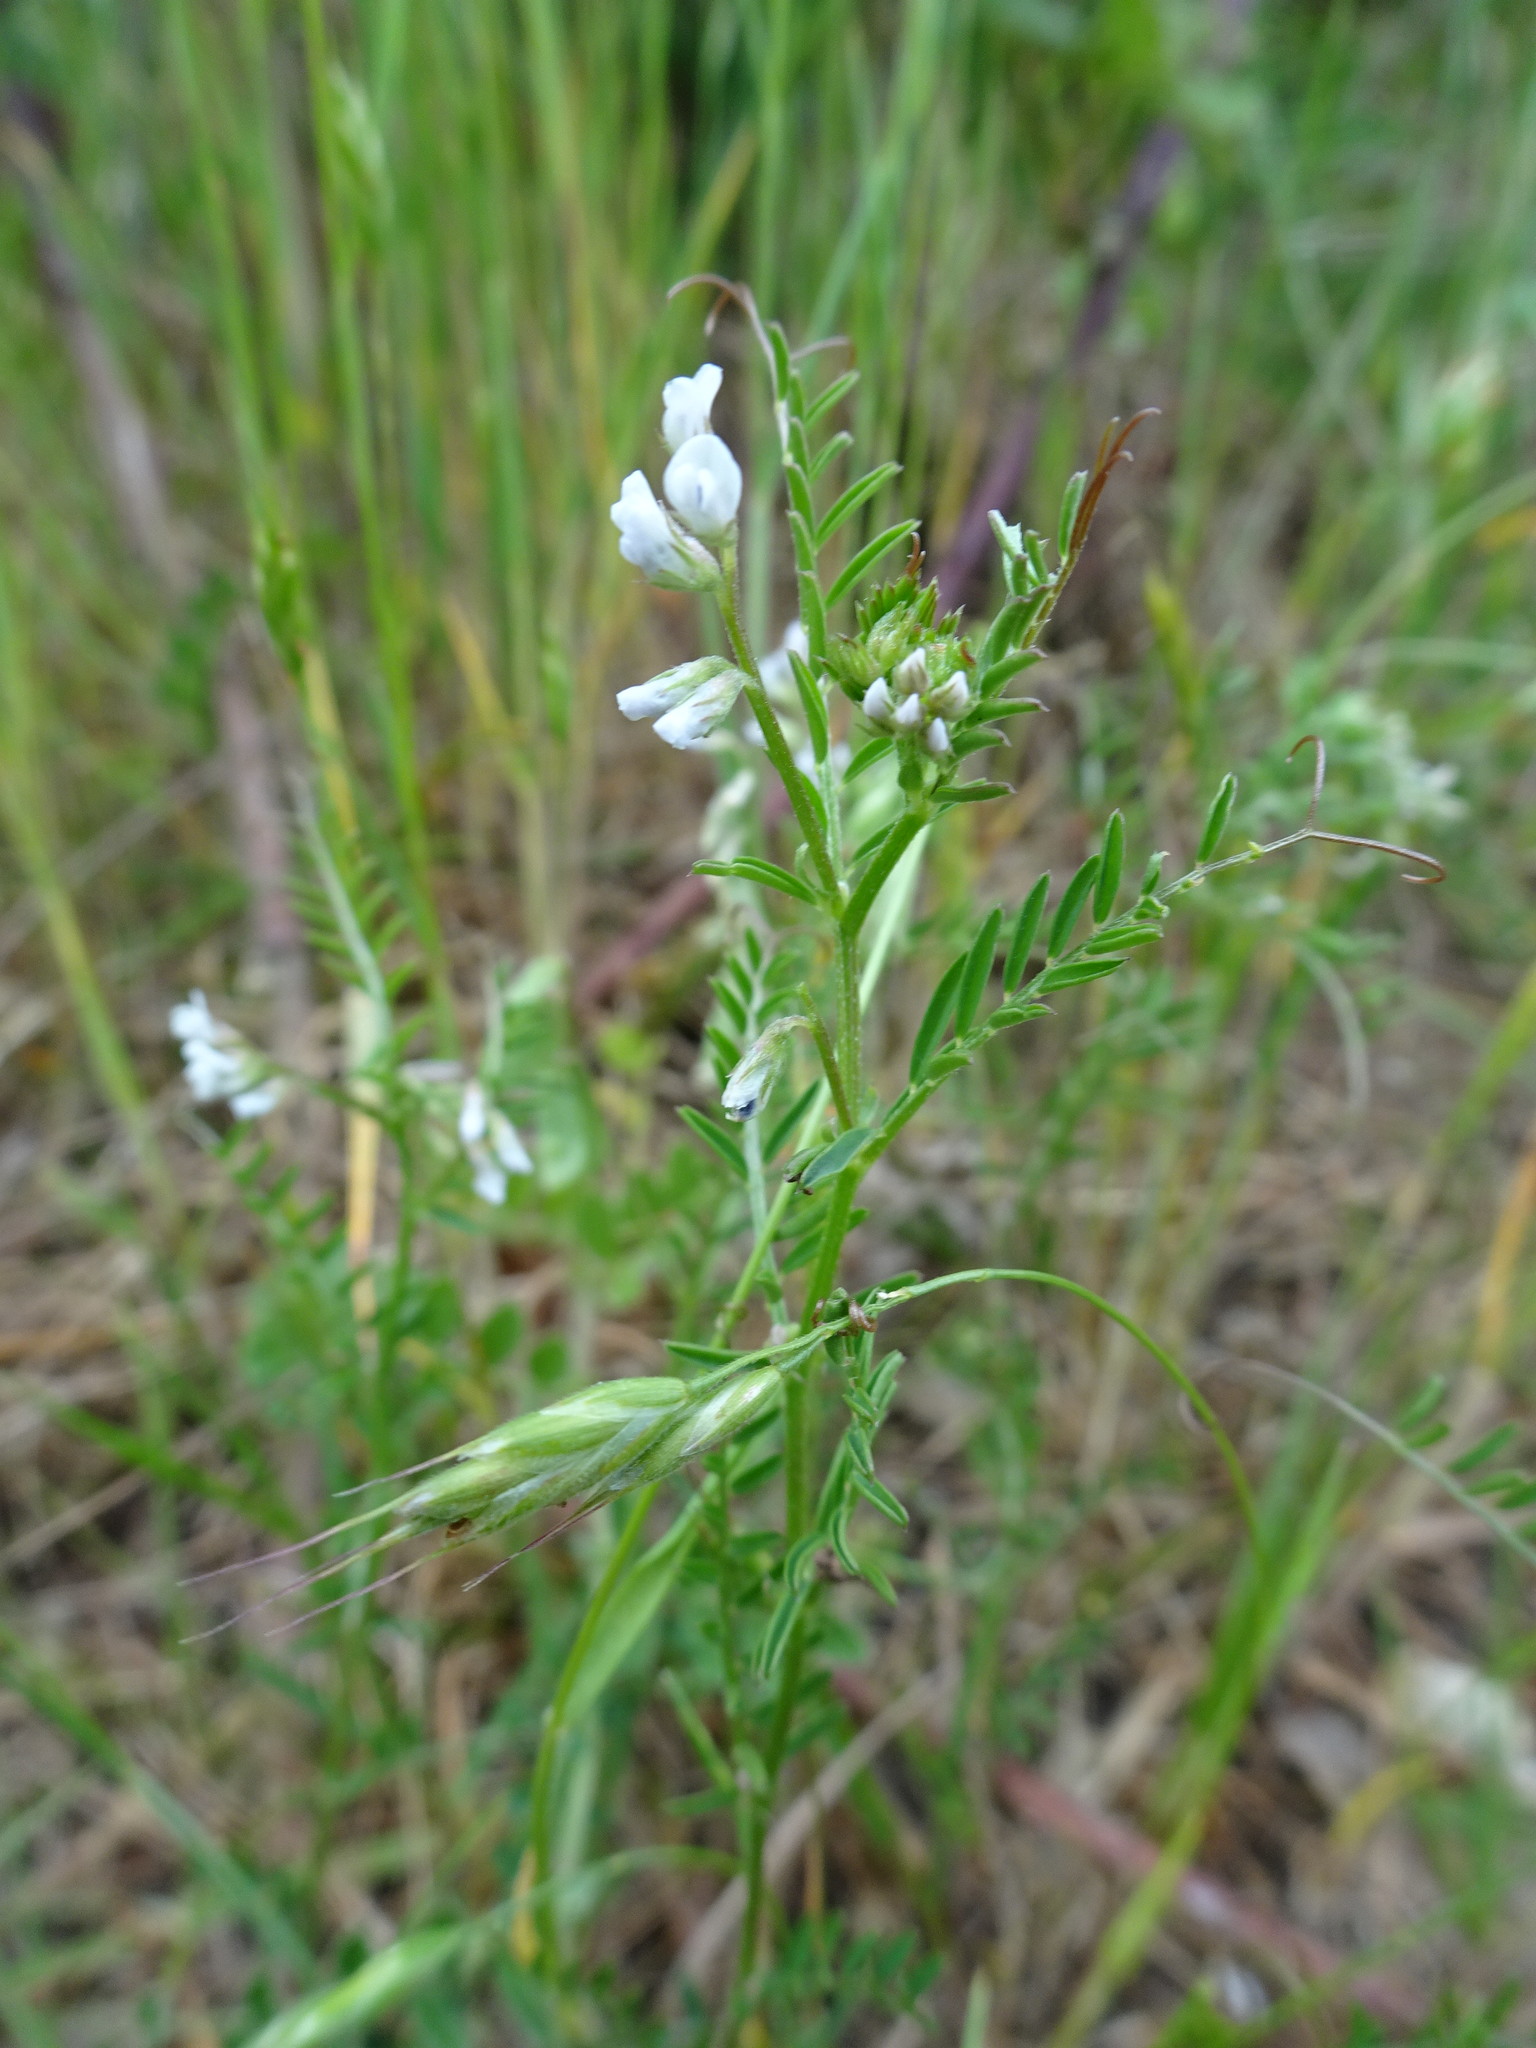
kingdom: Plantae
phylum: Tracheophyta
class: Magnoliopsida
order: Fabales
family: Fabaceae
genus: Vicia
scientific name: Vicia hirsuta
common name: Tiny vetch
